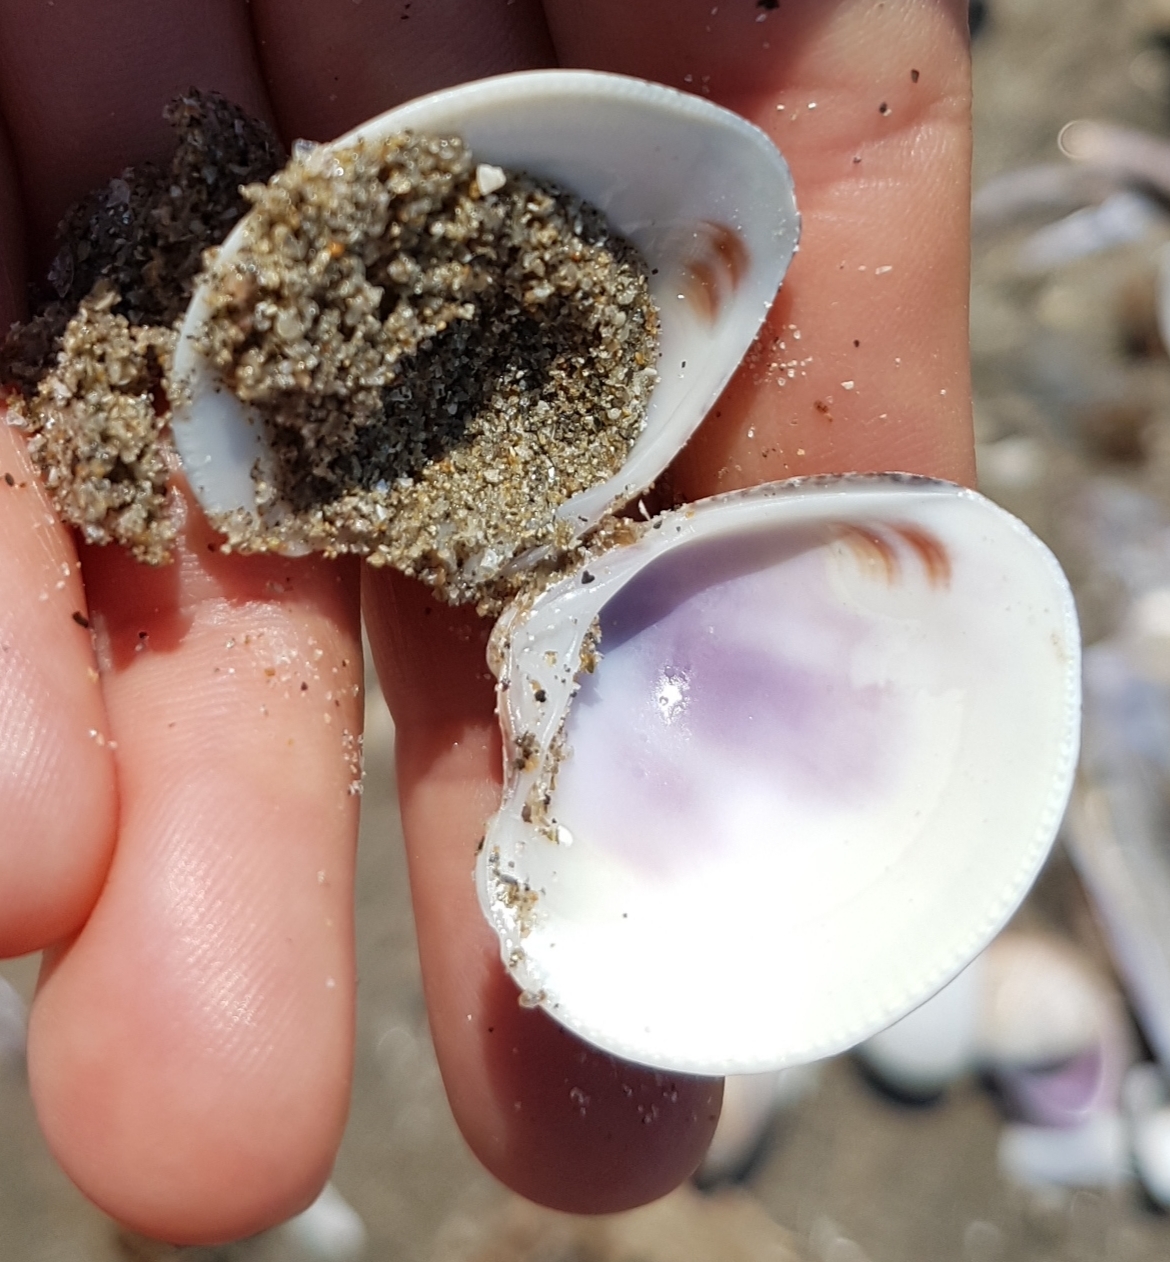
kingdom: Animalia
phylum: Mollusca
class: Bivalvia
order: Venerida
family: Veneridae
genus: Chamelea
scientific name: Chamelea gallina
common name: Chicken venus
